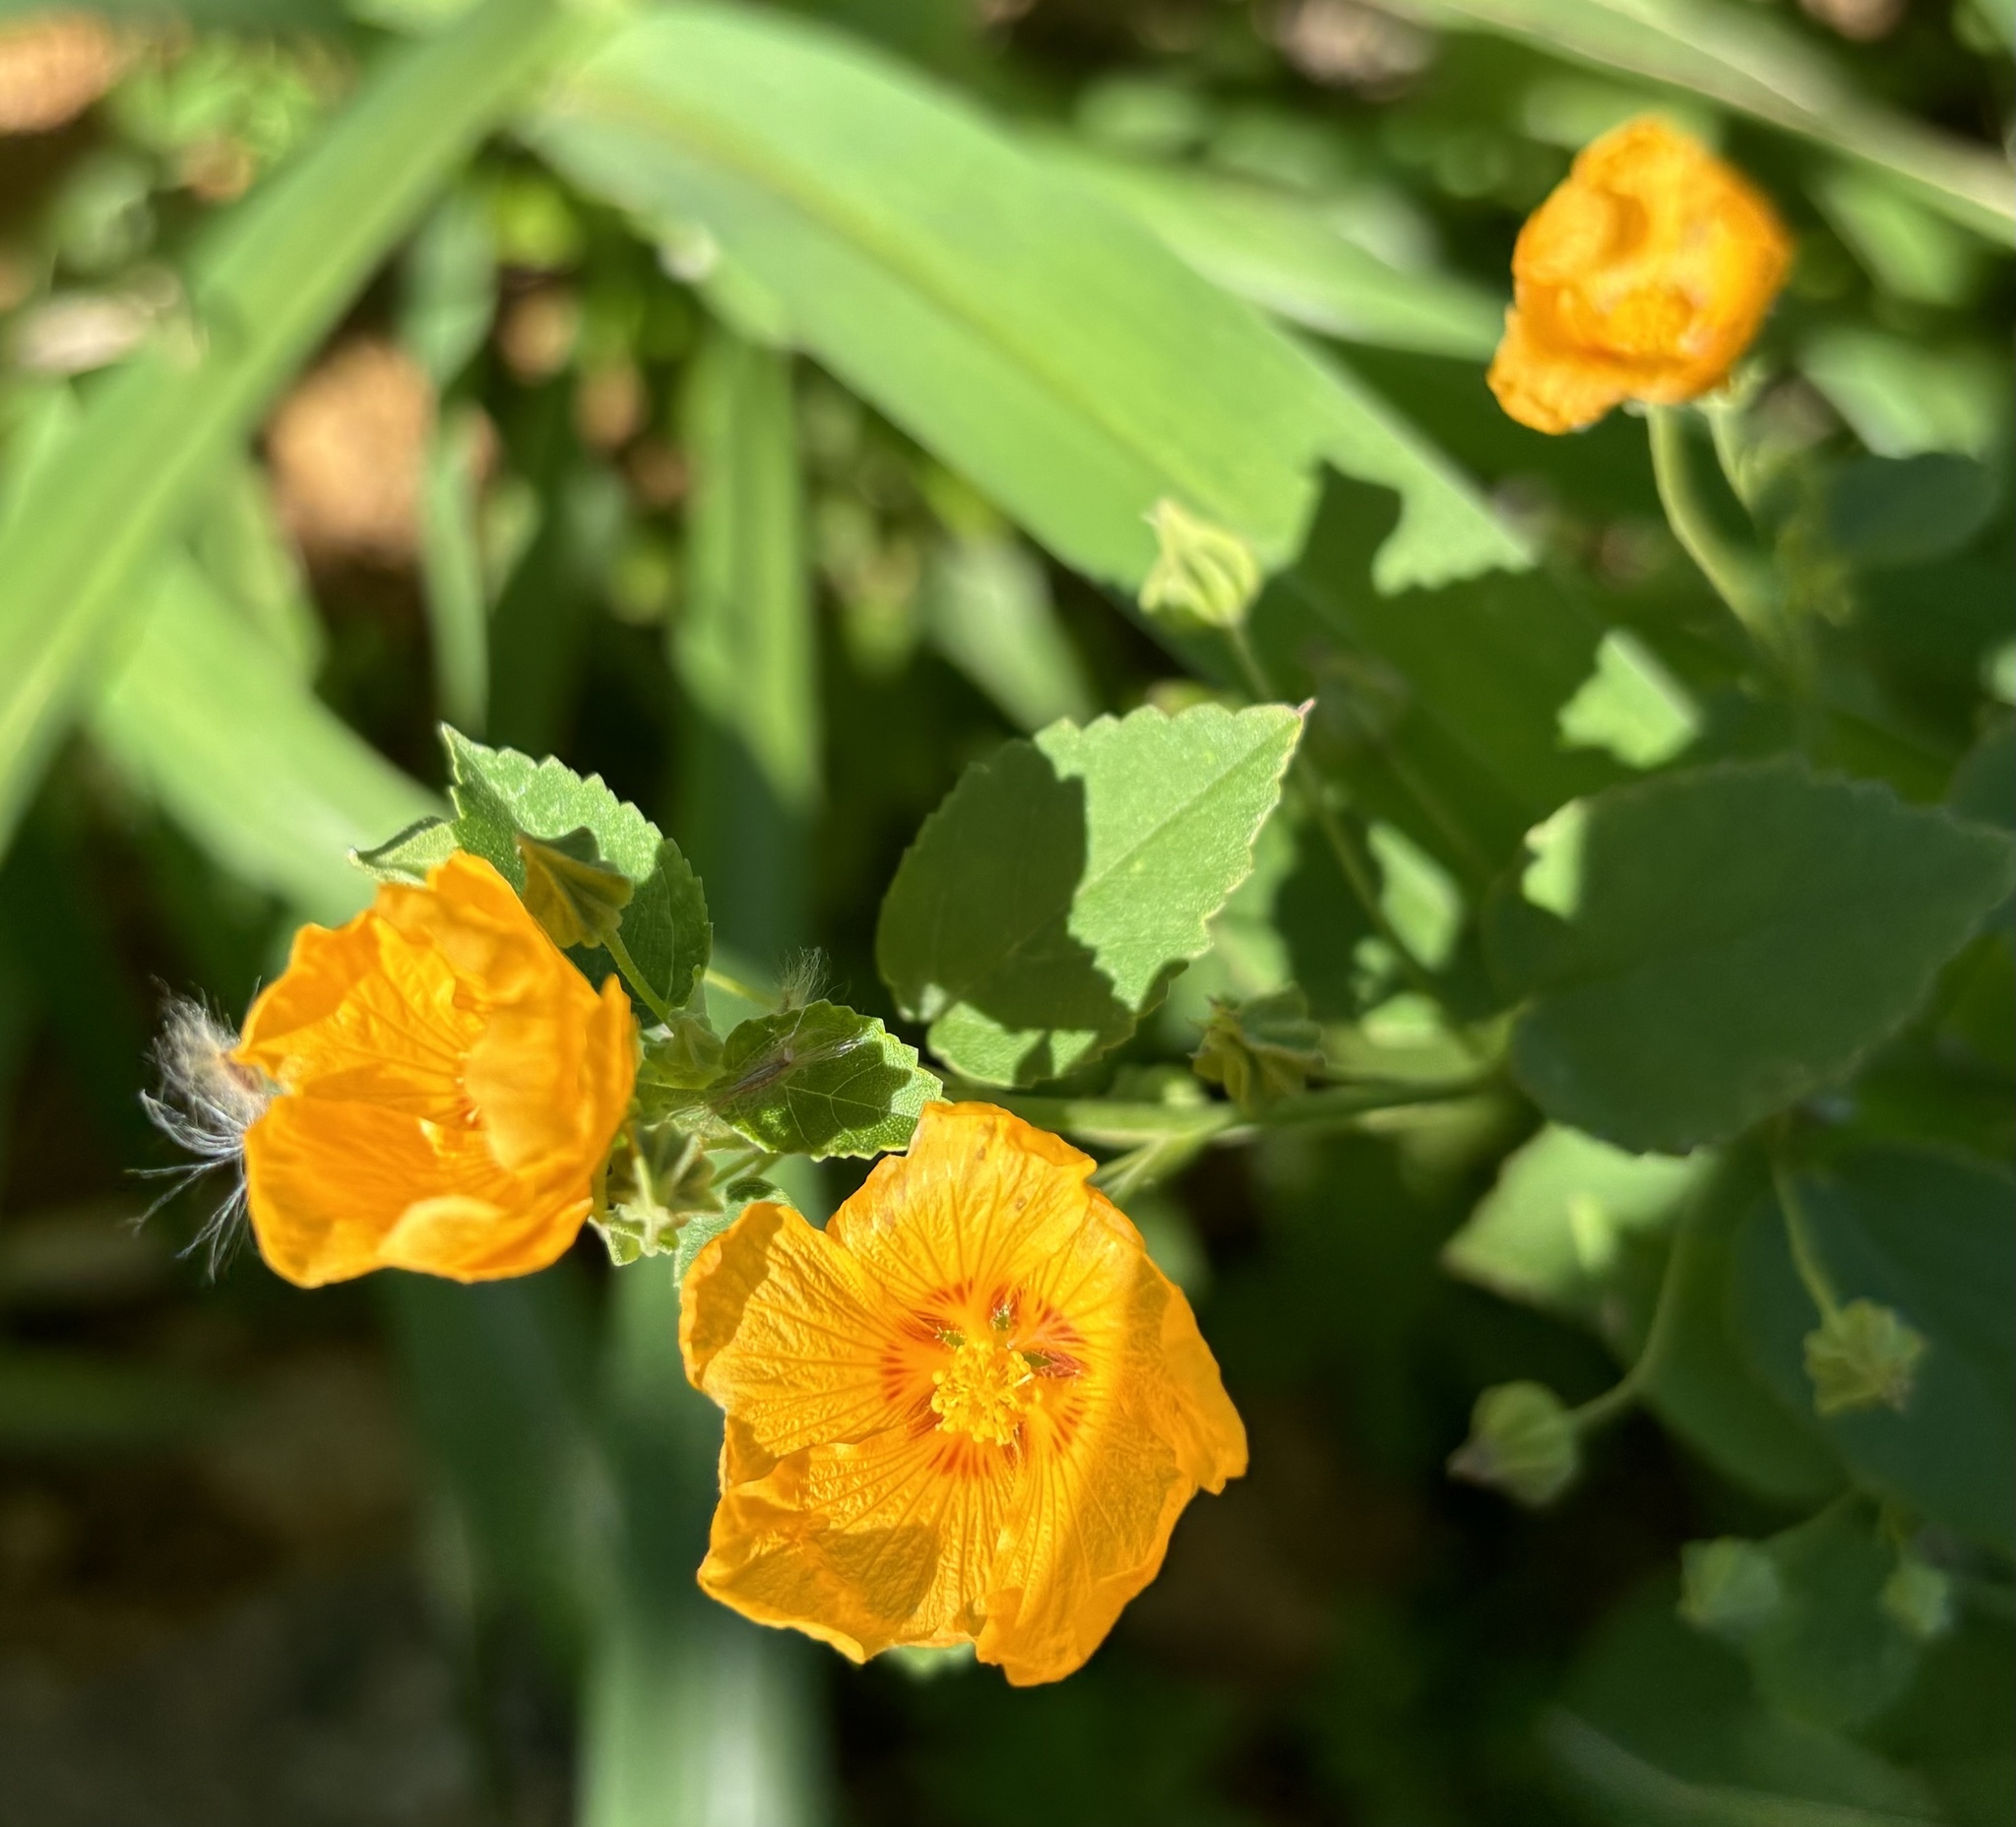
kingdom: Plantae
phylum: Tracheophyta
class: Magnoliopsida
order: Malvales
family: Malvaceae
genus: Sida
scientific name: Sida fallax
